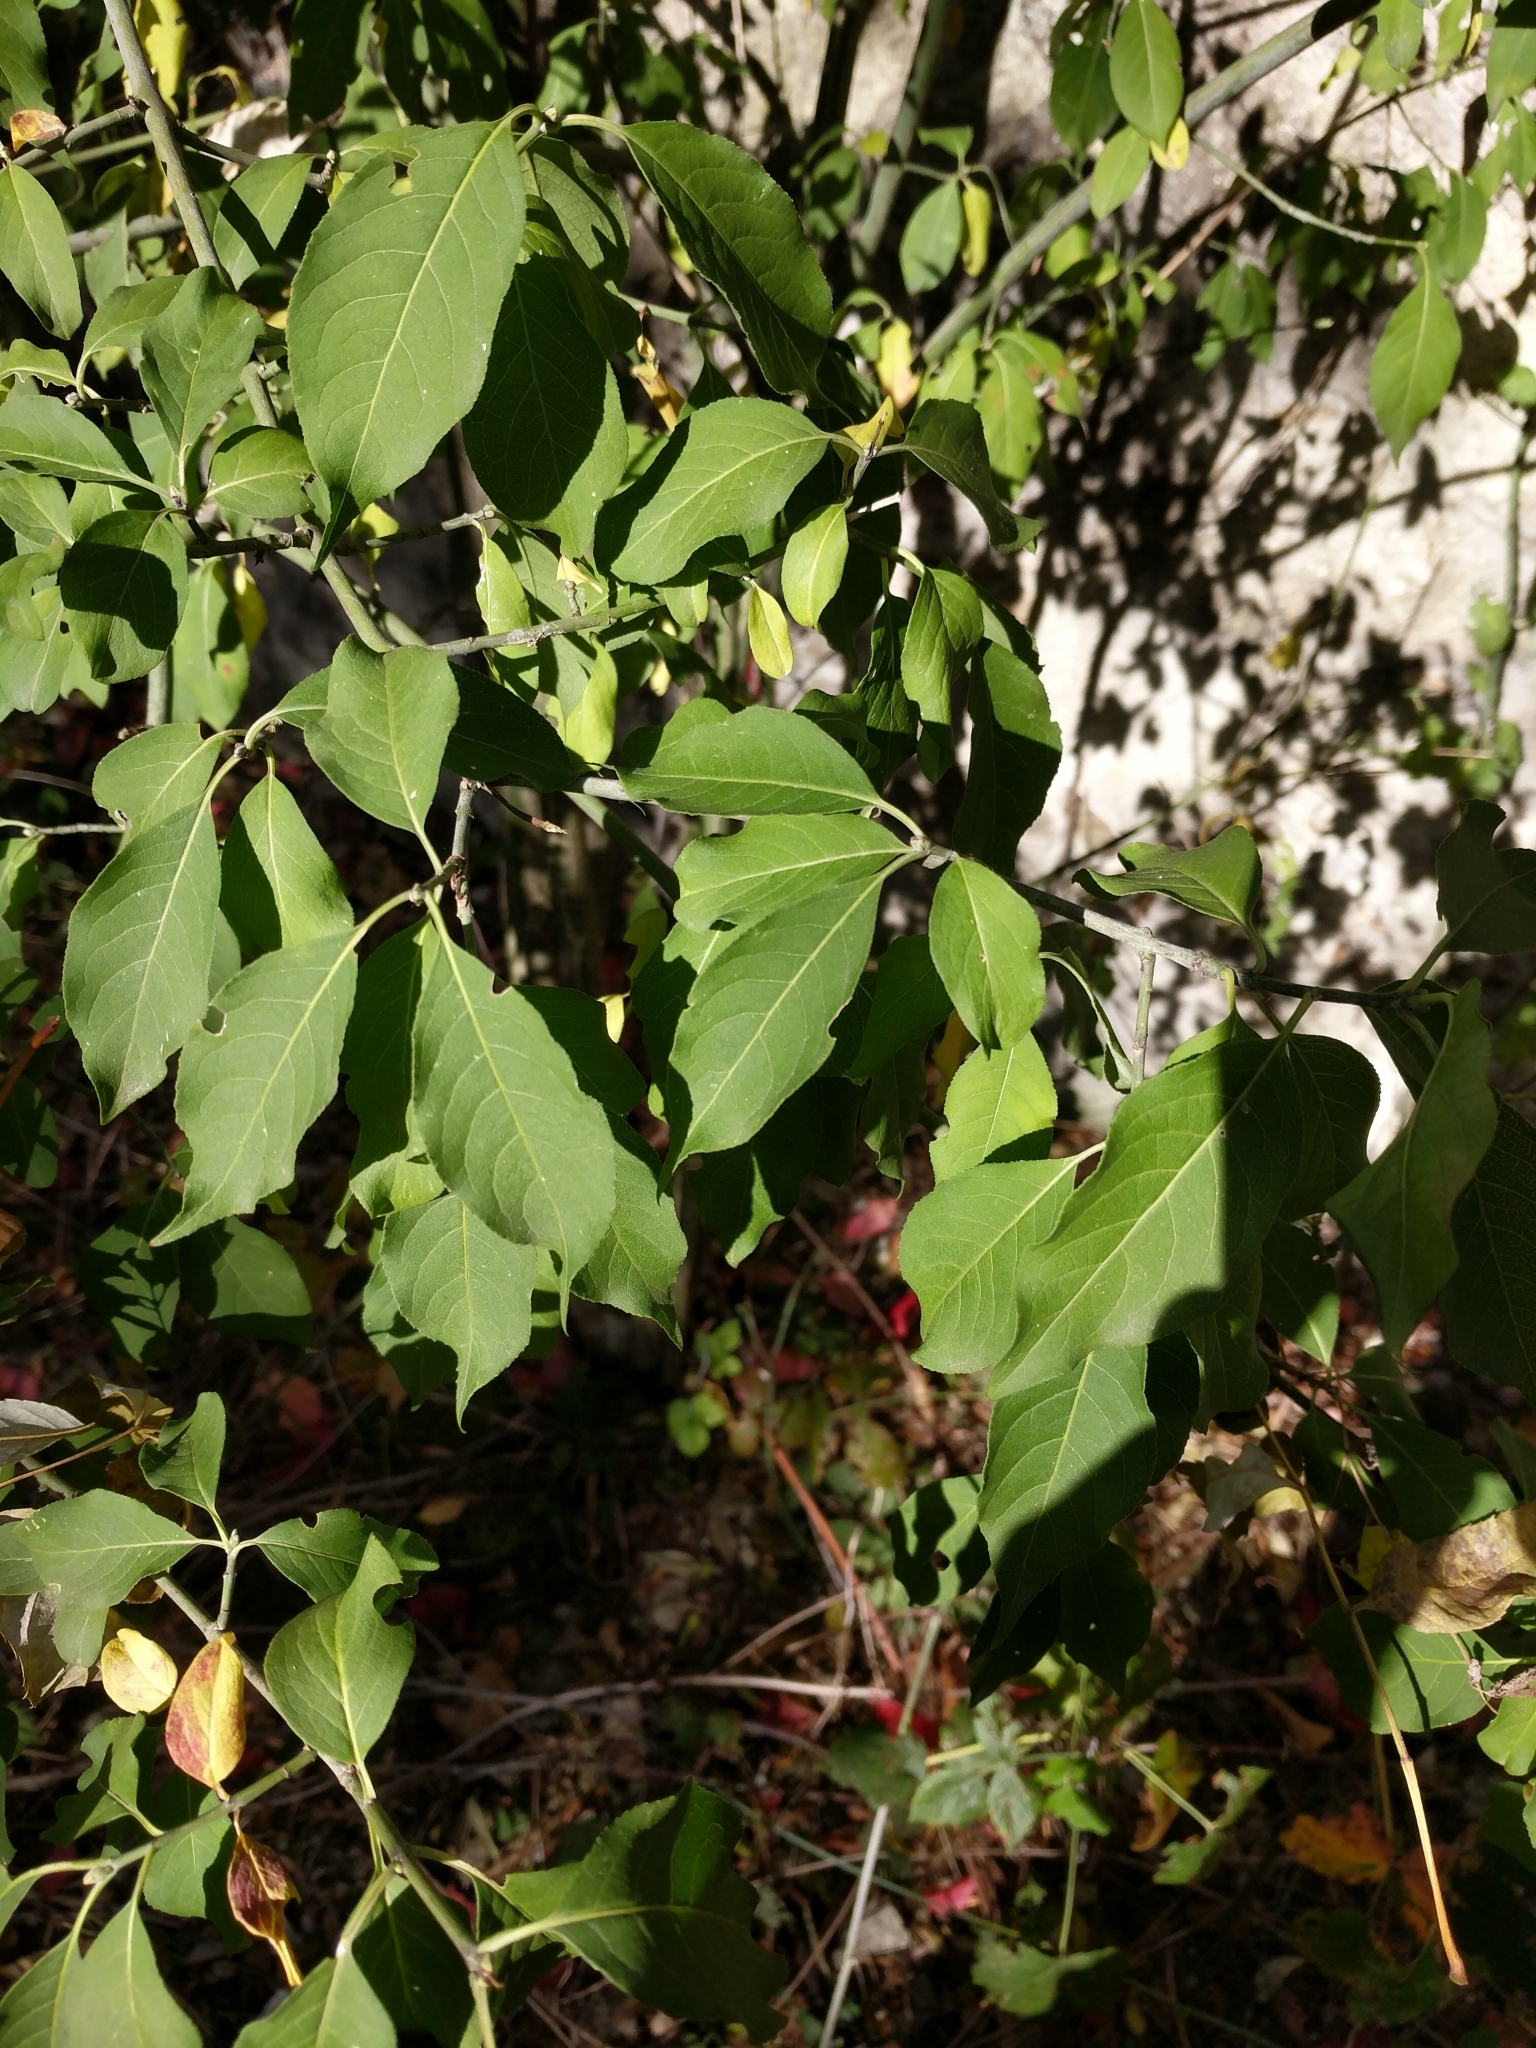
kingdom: Plantae
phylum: Tracheophyta
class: Magnoliopsida
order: Celastrales
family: Celastraceae
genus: Euonymus
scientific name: Euonymus europaeus
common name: Spindle
